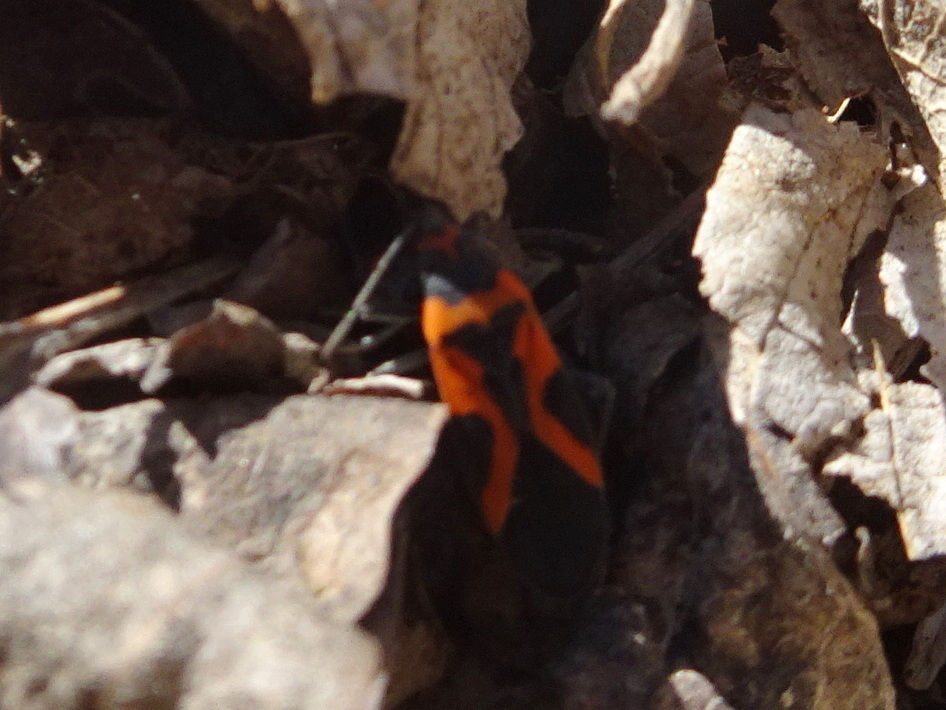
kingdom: Animalia
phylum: Arthropoda
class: Insecta
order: Hemiptera
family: Lygaeidae
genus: Lygaeus
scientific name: Lygaeus turcicus
